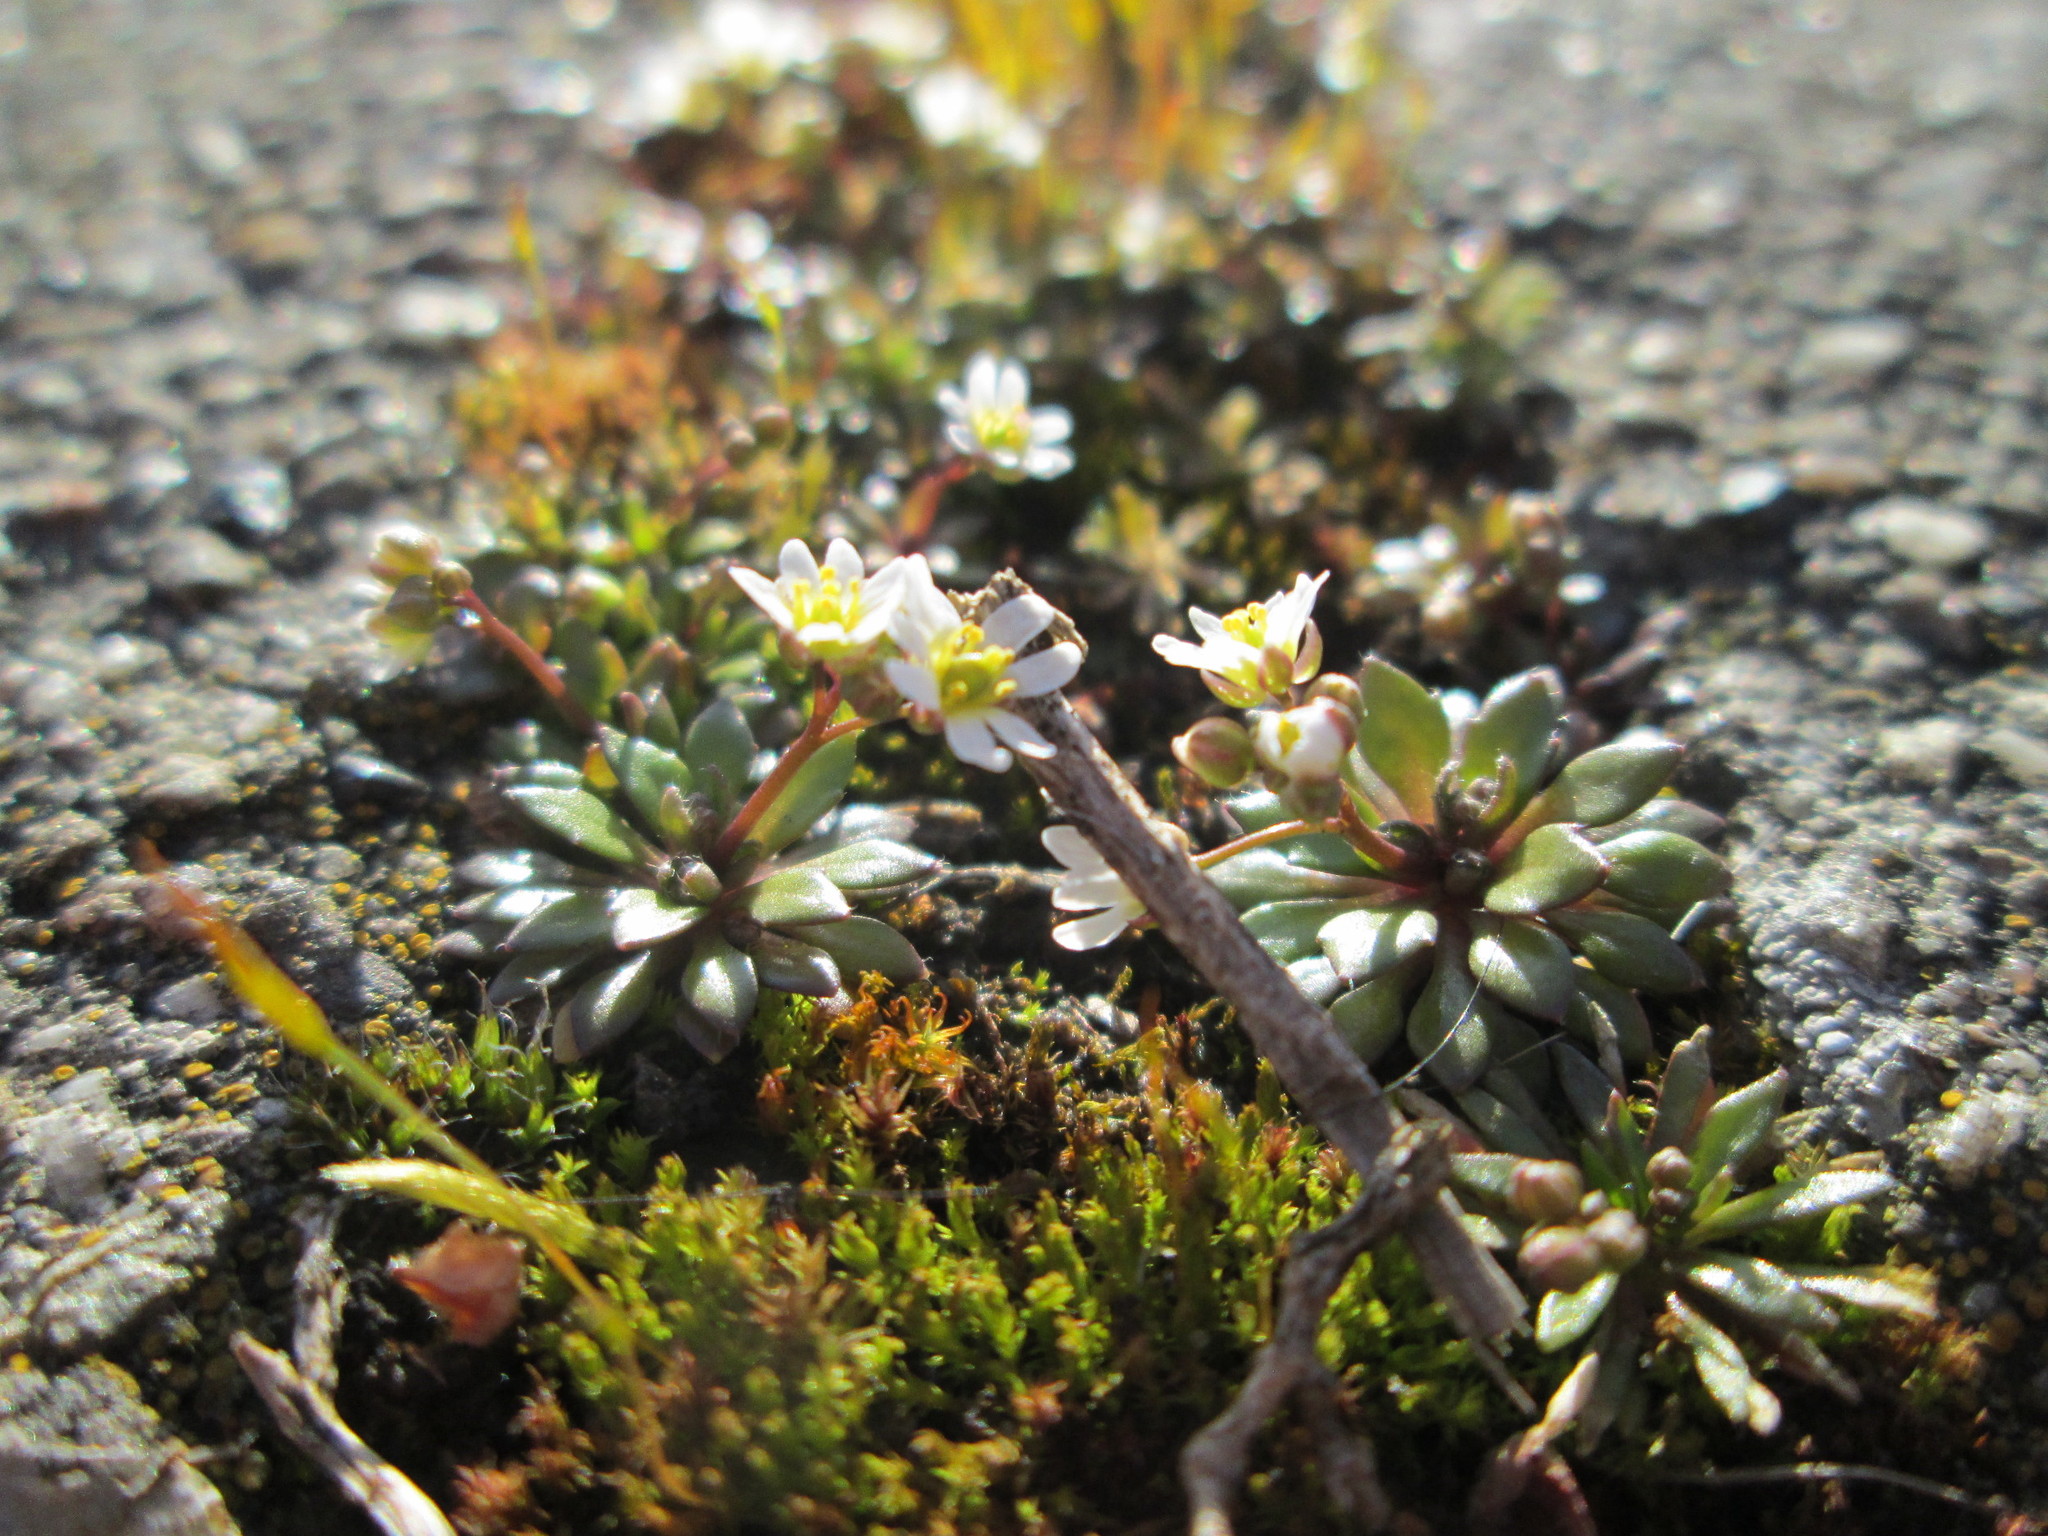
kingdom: Plantae
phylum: Tracheophyta
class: Magnoliopsida
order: Brassicales
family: Brassicaceae
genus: Draba
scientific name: Draba verna
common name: Spring draba
